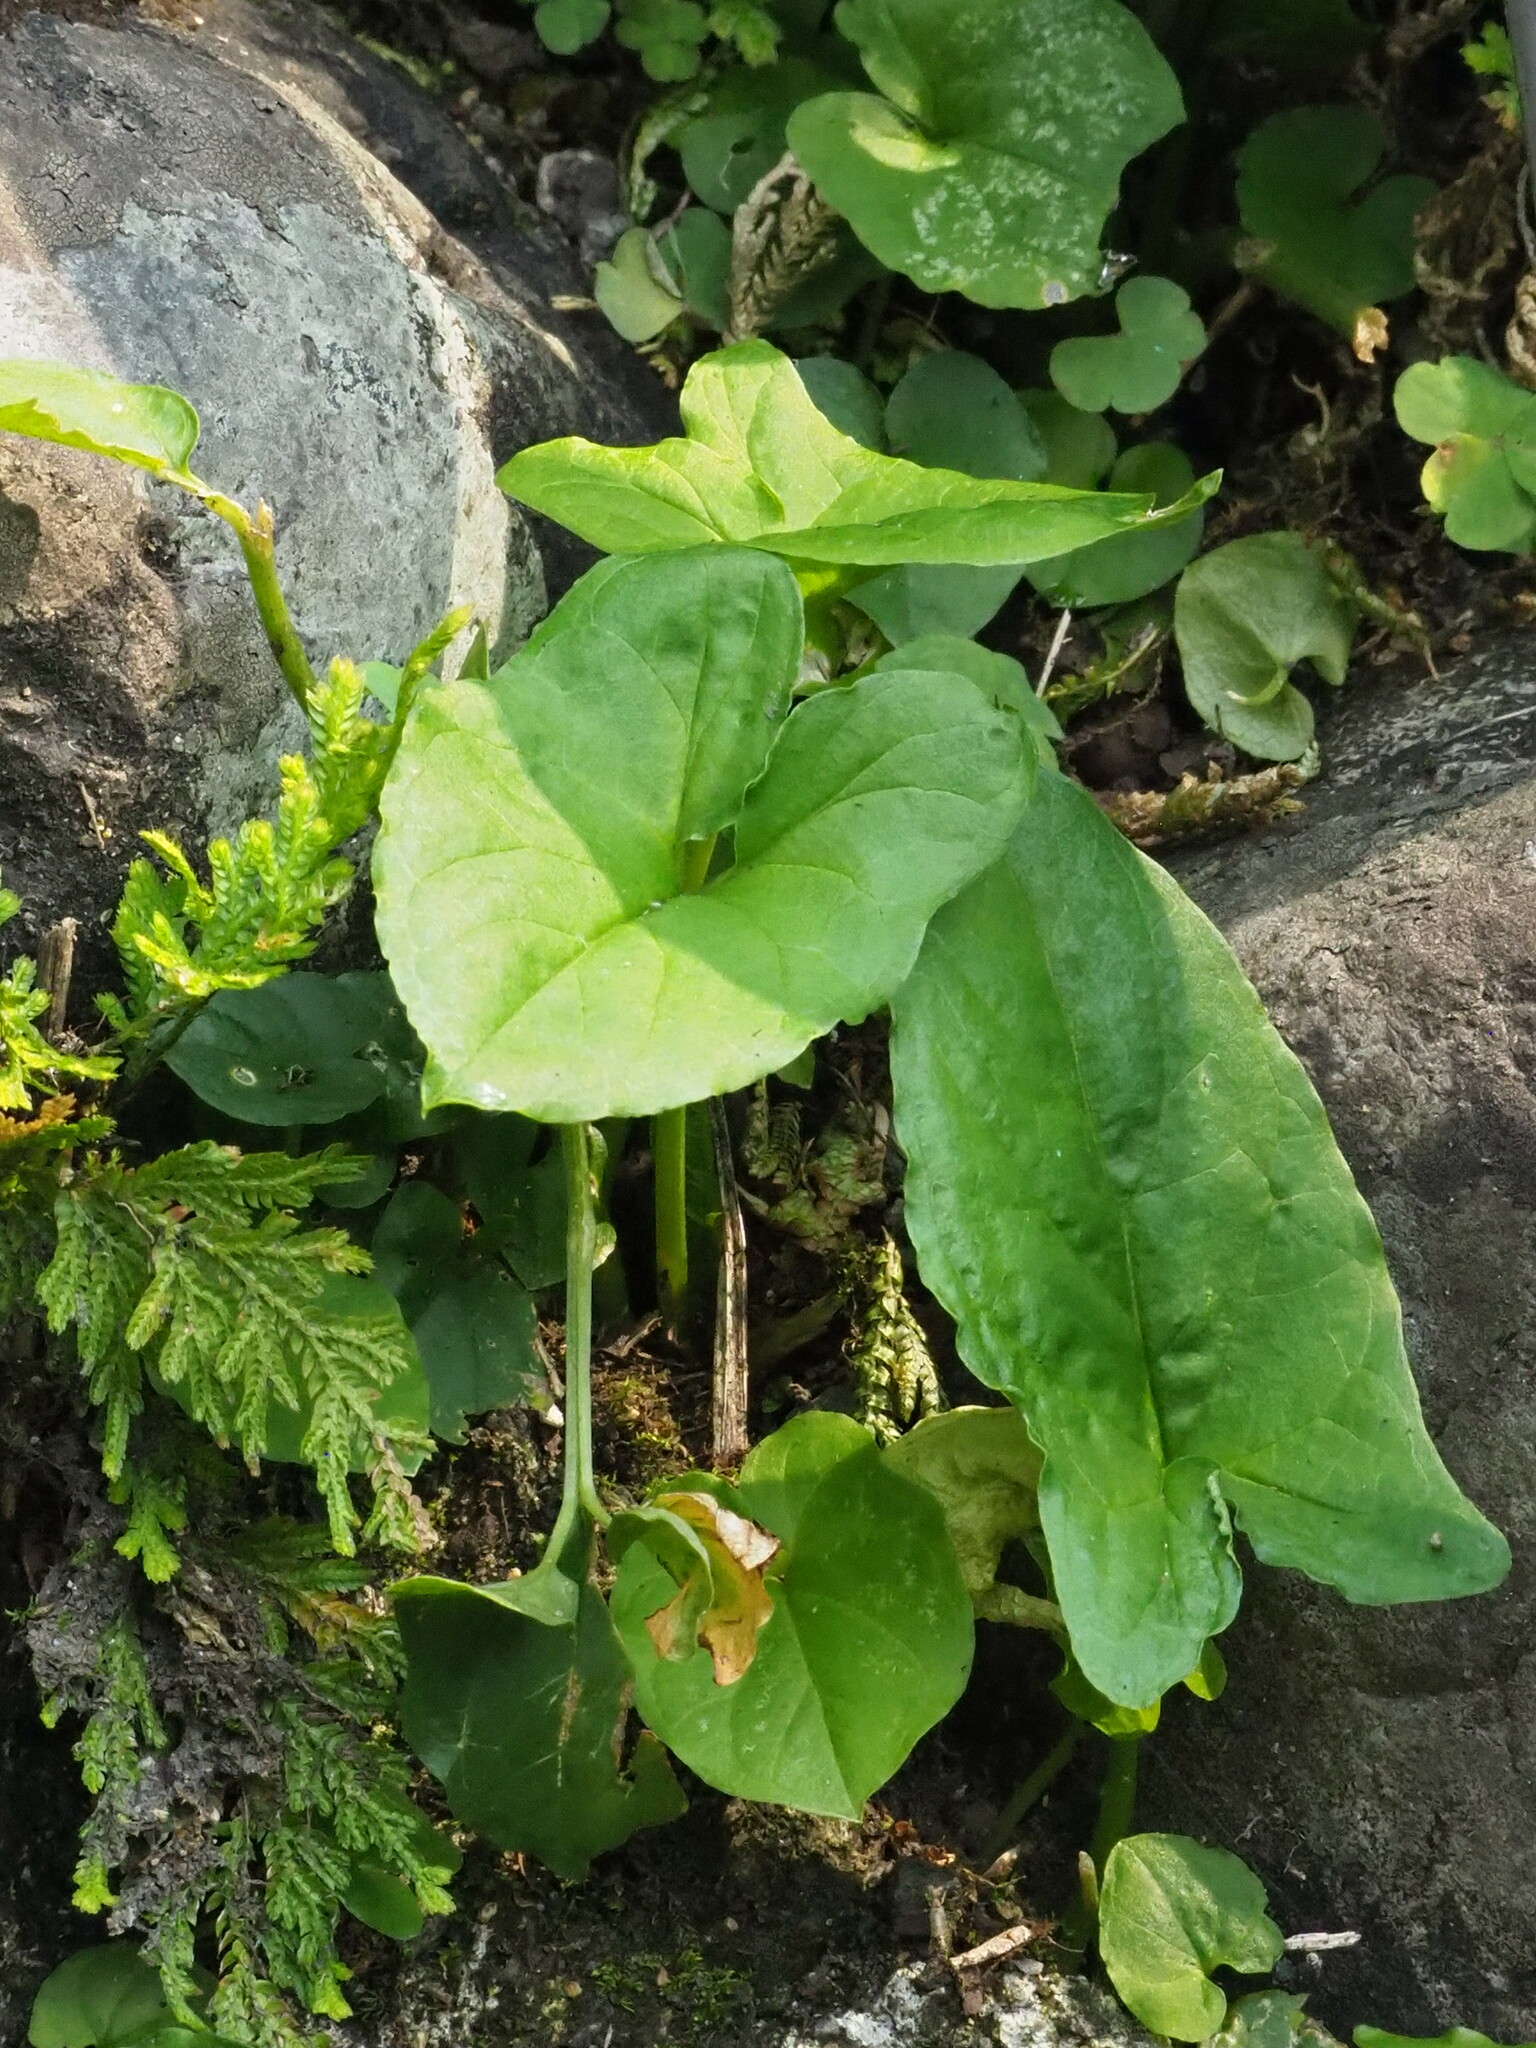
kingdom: Plantae
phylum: Tracheophyta
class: Liliopsida
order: Alismatales
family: Araceae
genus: Typhonium
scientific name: Typhonium blumei
